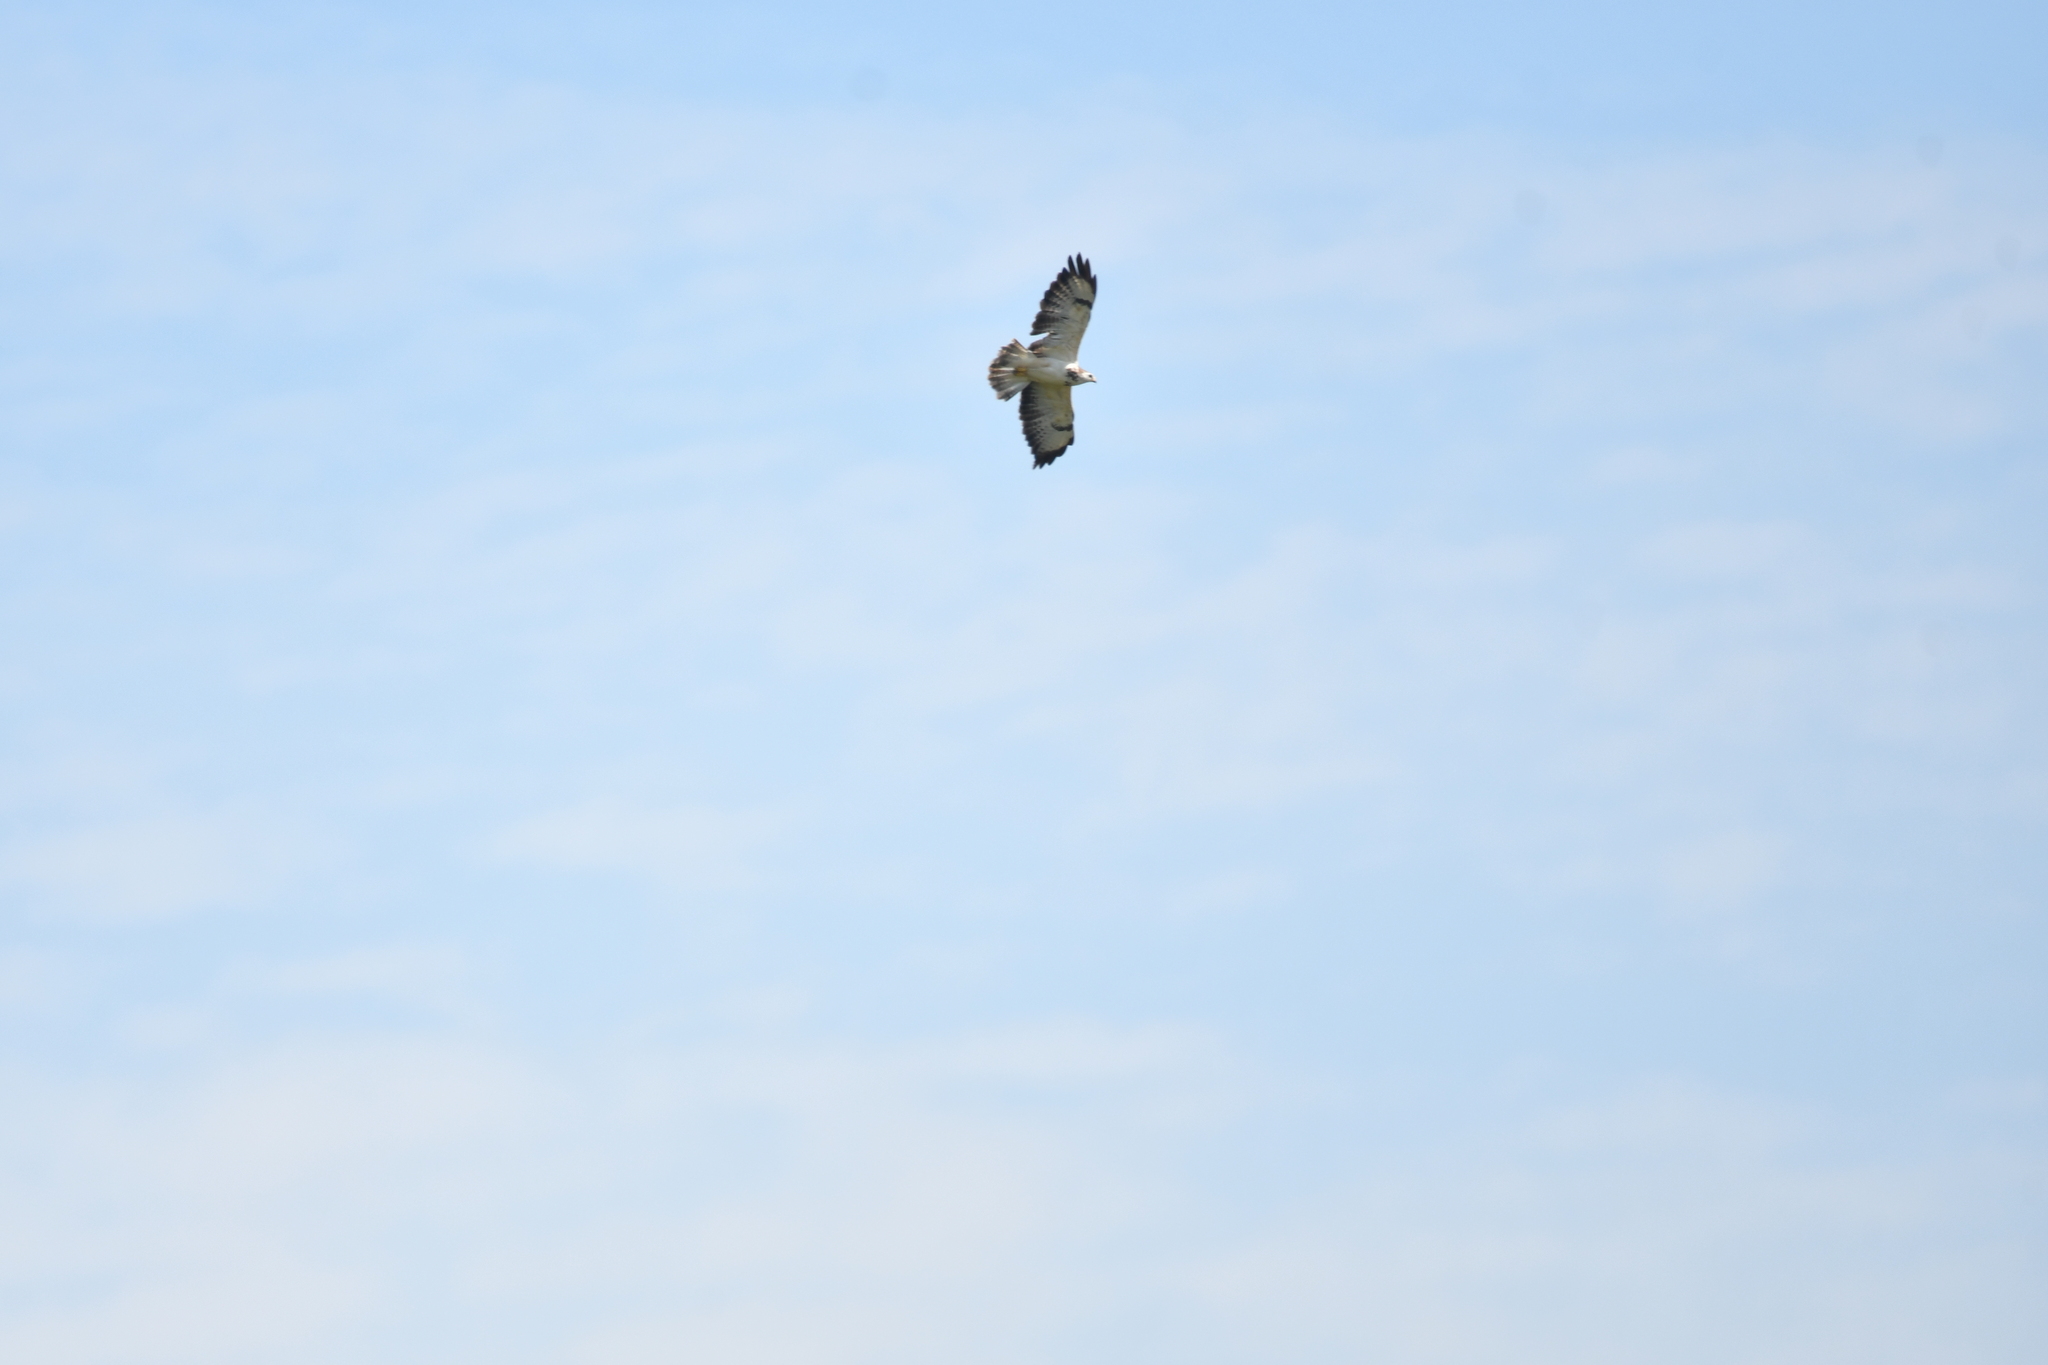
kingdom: Animalia
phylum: Chordata
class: Aves
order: Accipitriformes
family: Accipitridae
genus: Buteo
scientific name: Buteo buteo
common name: Common buzzard
